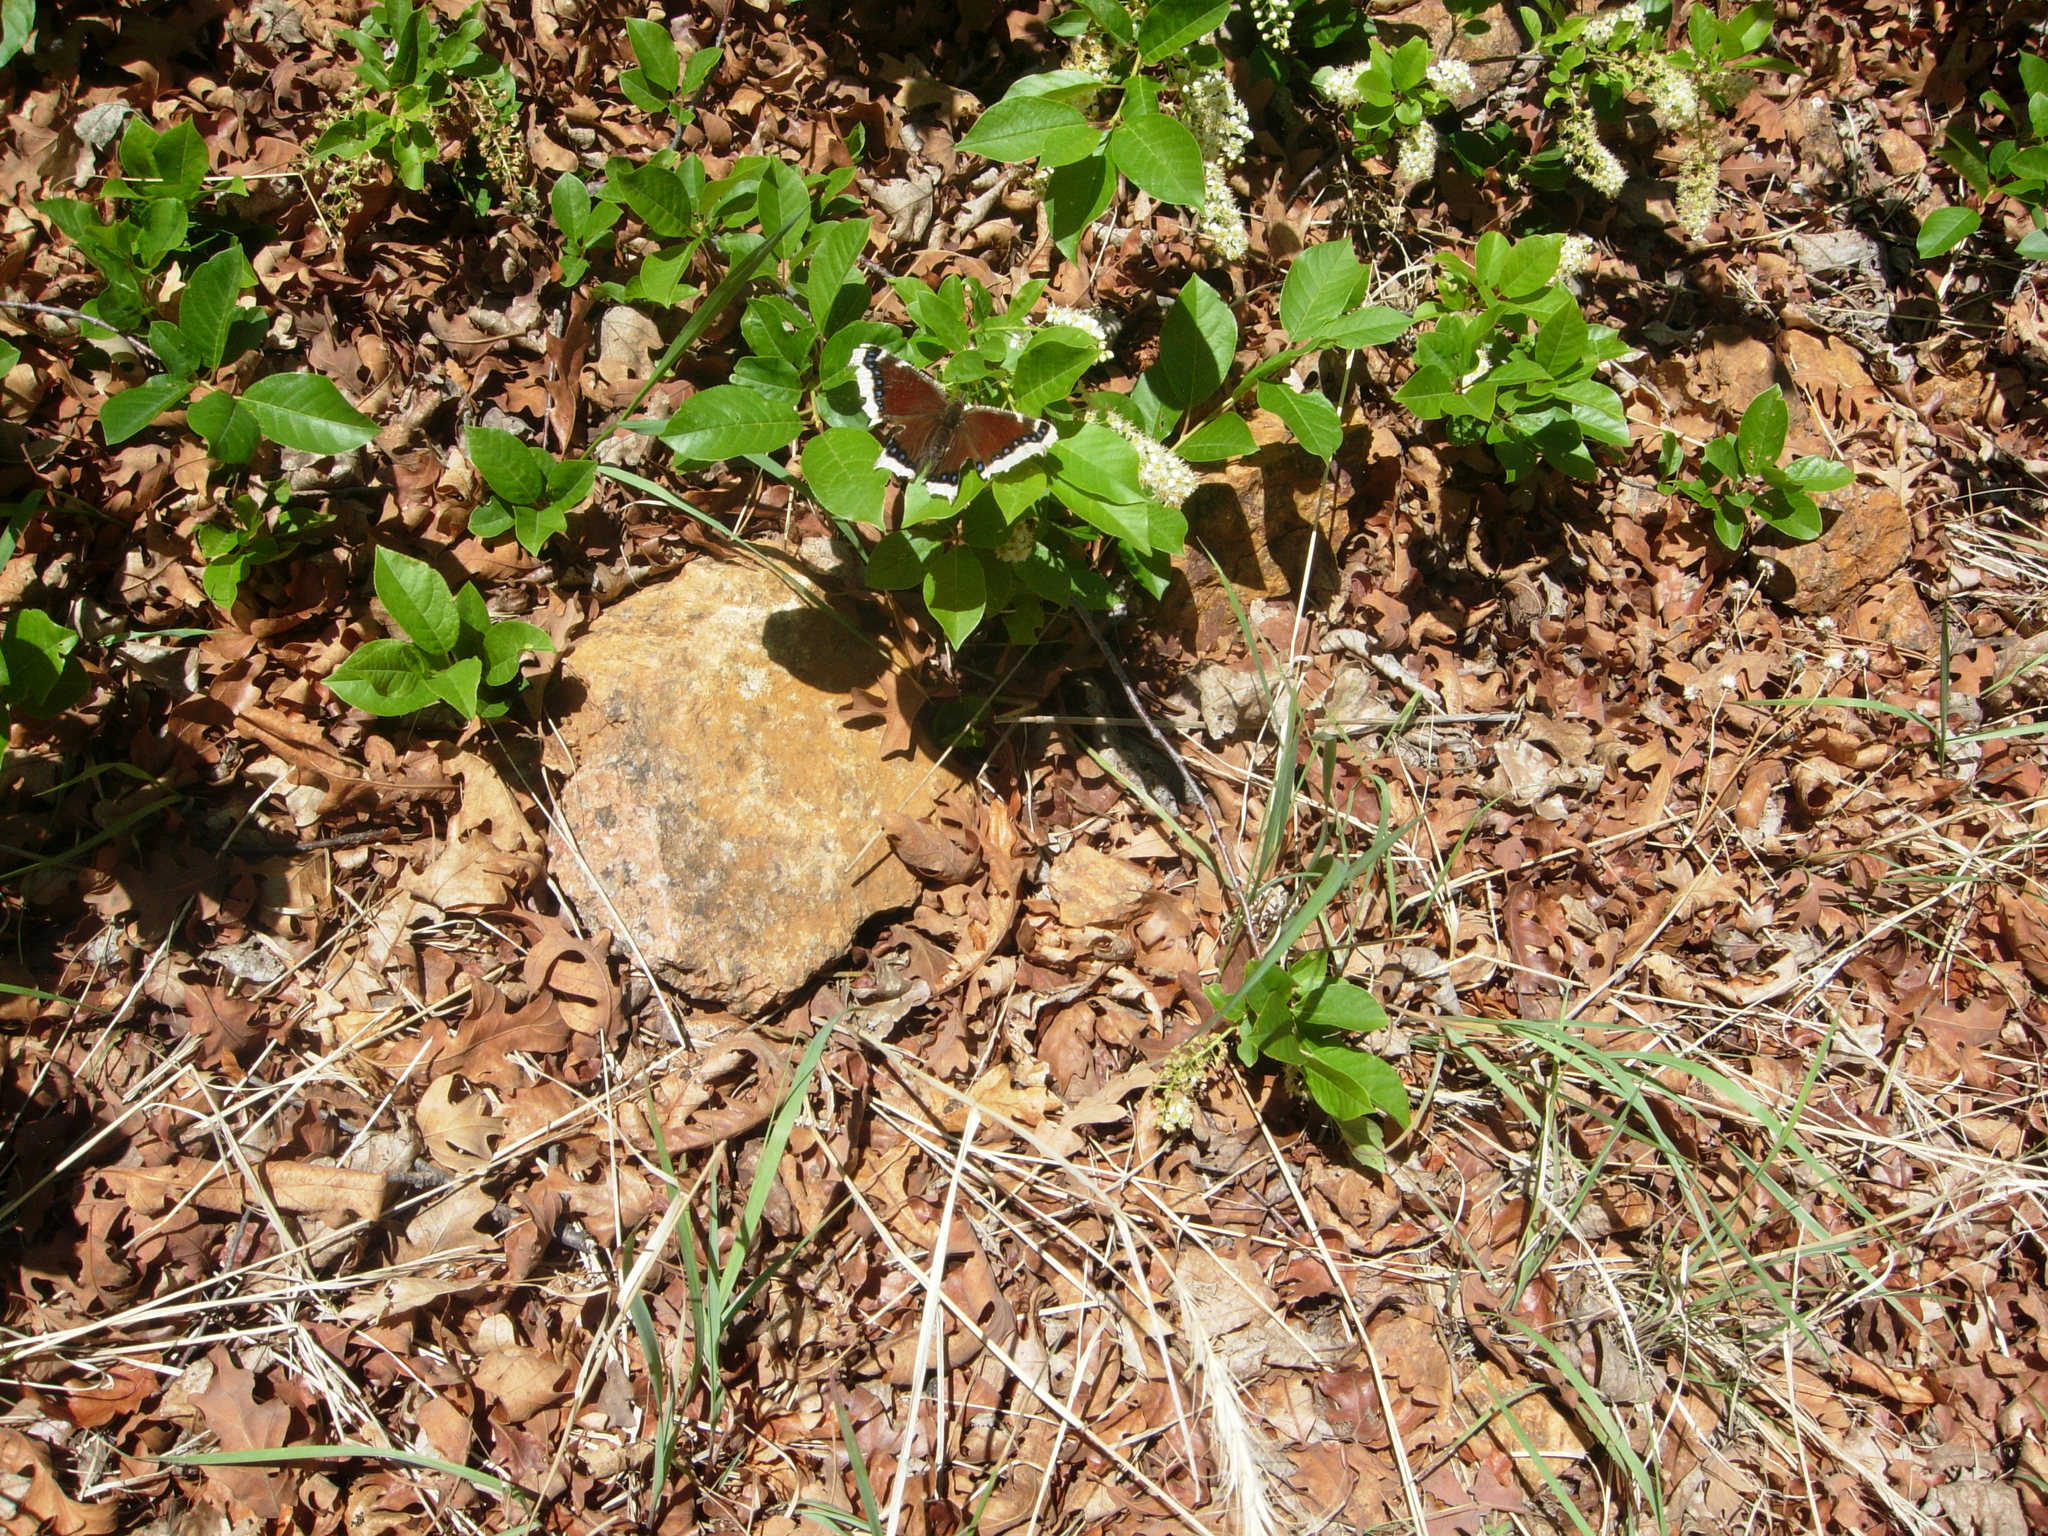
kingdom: Animalia
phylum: Arthropoda
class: Insecta
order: Lepidoptera
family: Nymphalidae
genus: Nymphalis
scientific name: Nymphalis antiopa
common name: Camberwell beauty
